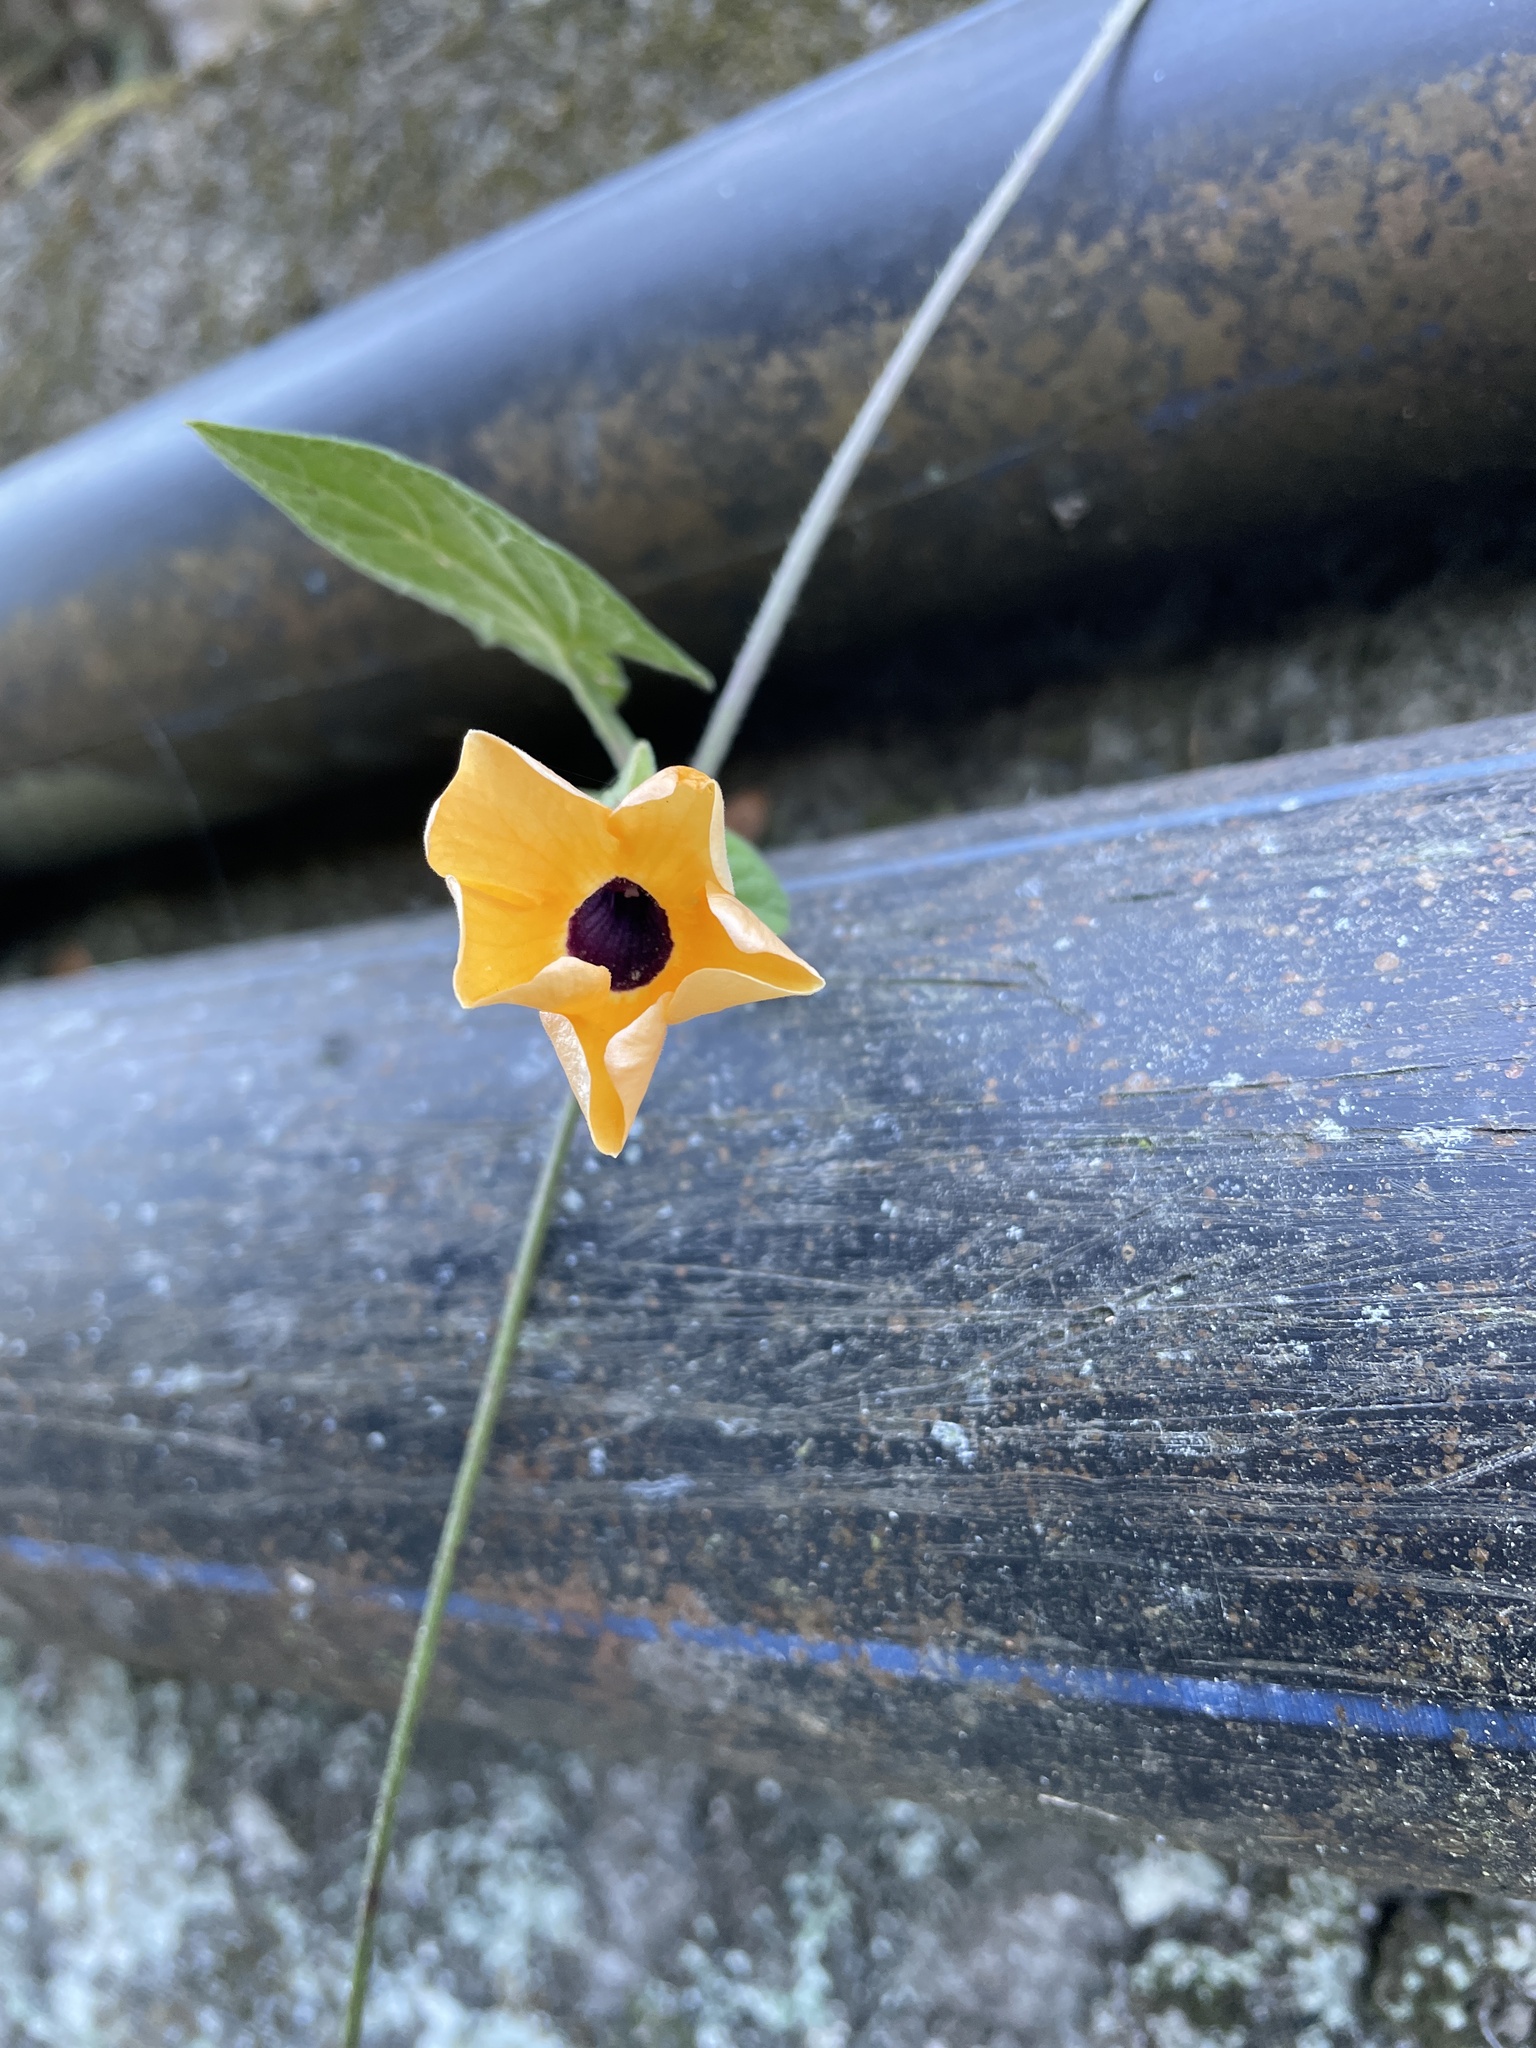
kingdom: Plantae
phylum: Tracheophyta
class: Magnoliopsida
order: Lamiales
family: Acanthaceae
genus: Thunbergia
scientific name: Thunbergia alata
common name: Blackeyed susan vine
